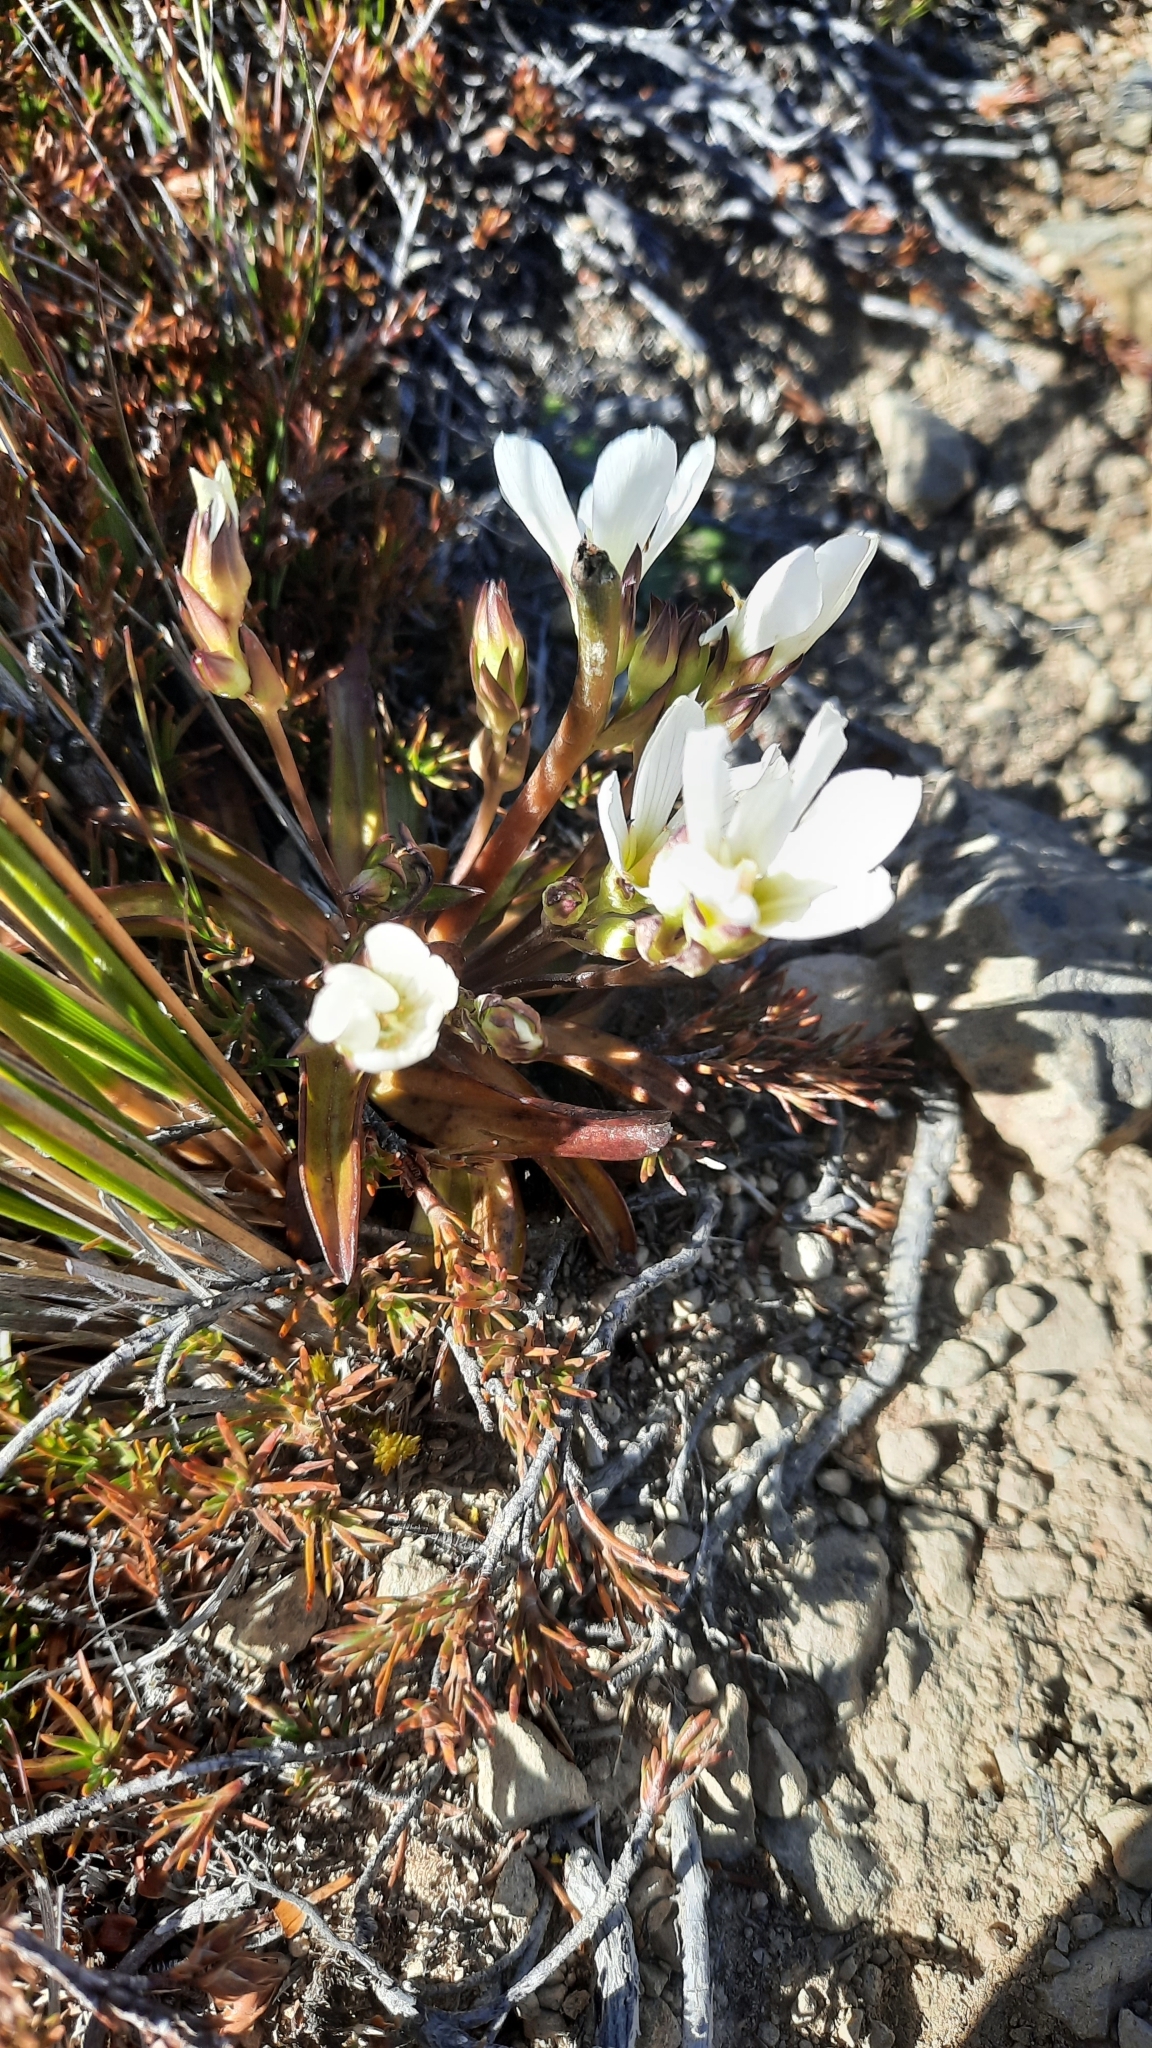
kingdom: Plantae
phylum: Tracheophyta
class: Magnoliopsida
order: Gentianales
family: Gentianaceae
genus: Gentianella
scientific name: Gentianella corymbifera
